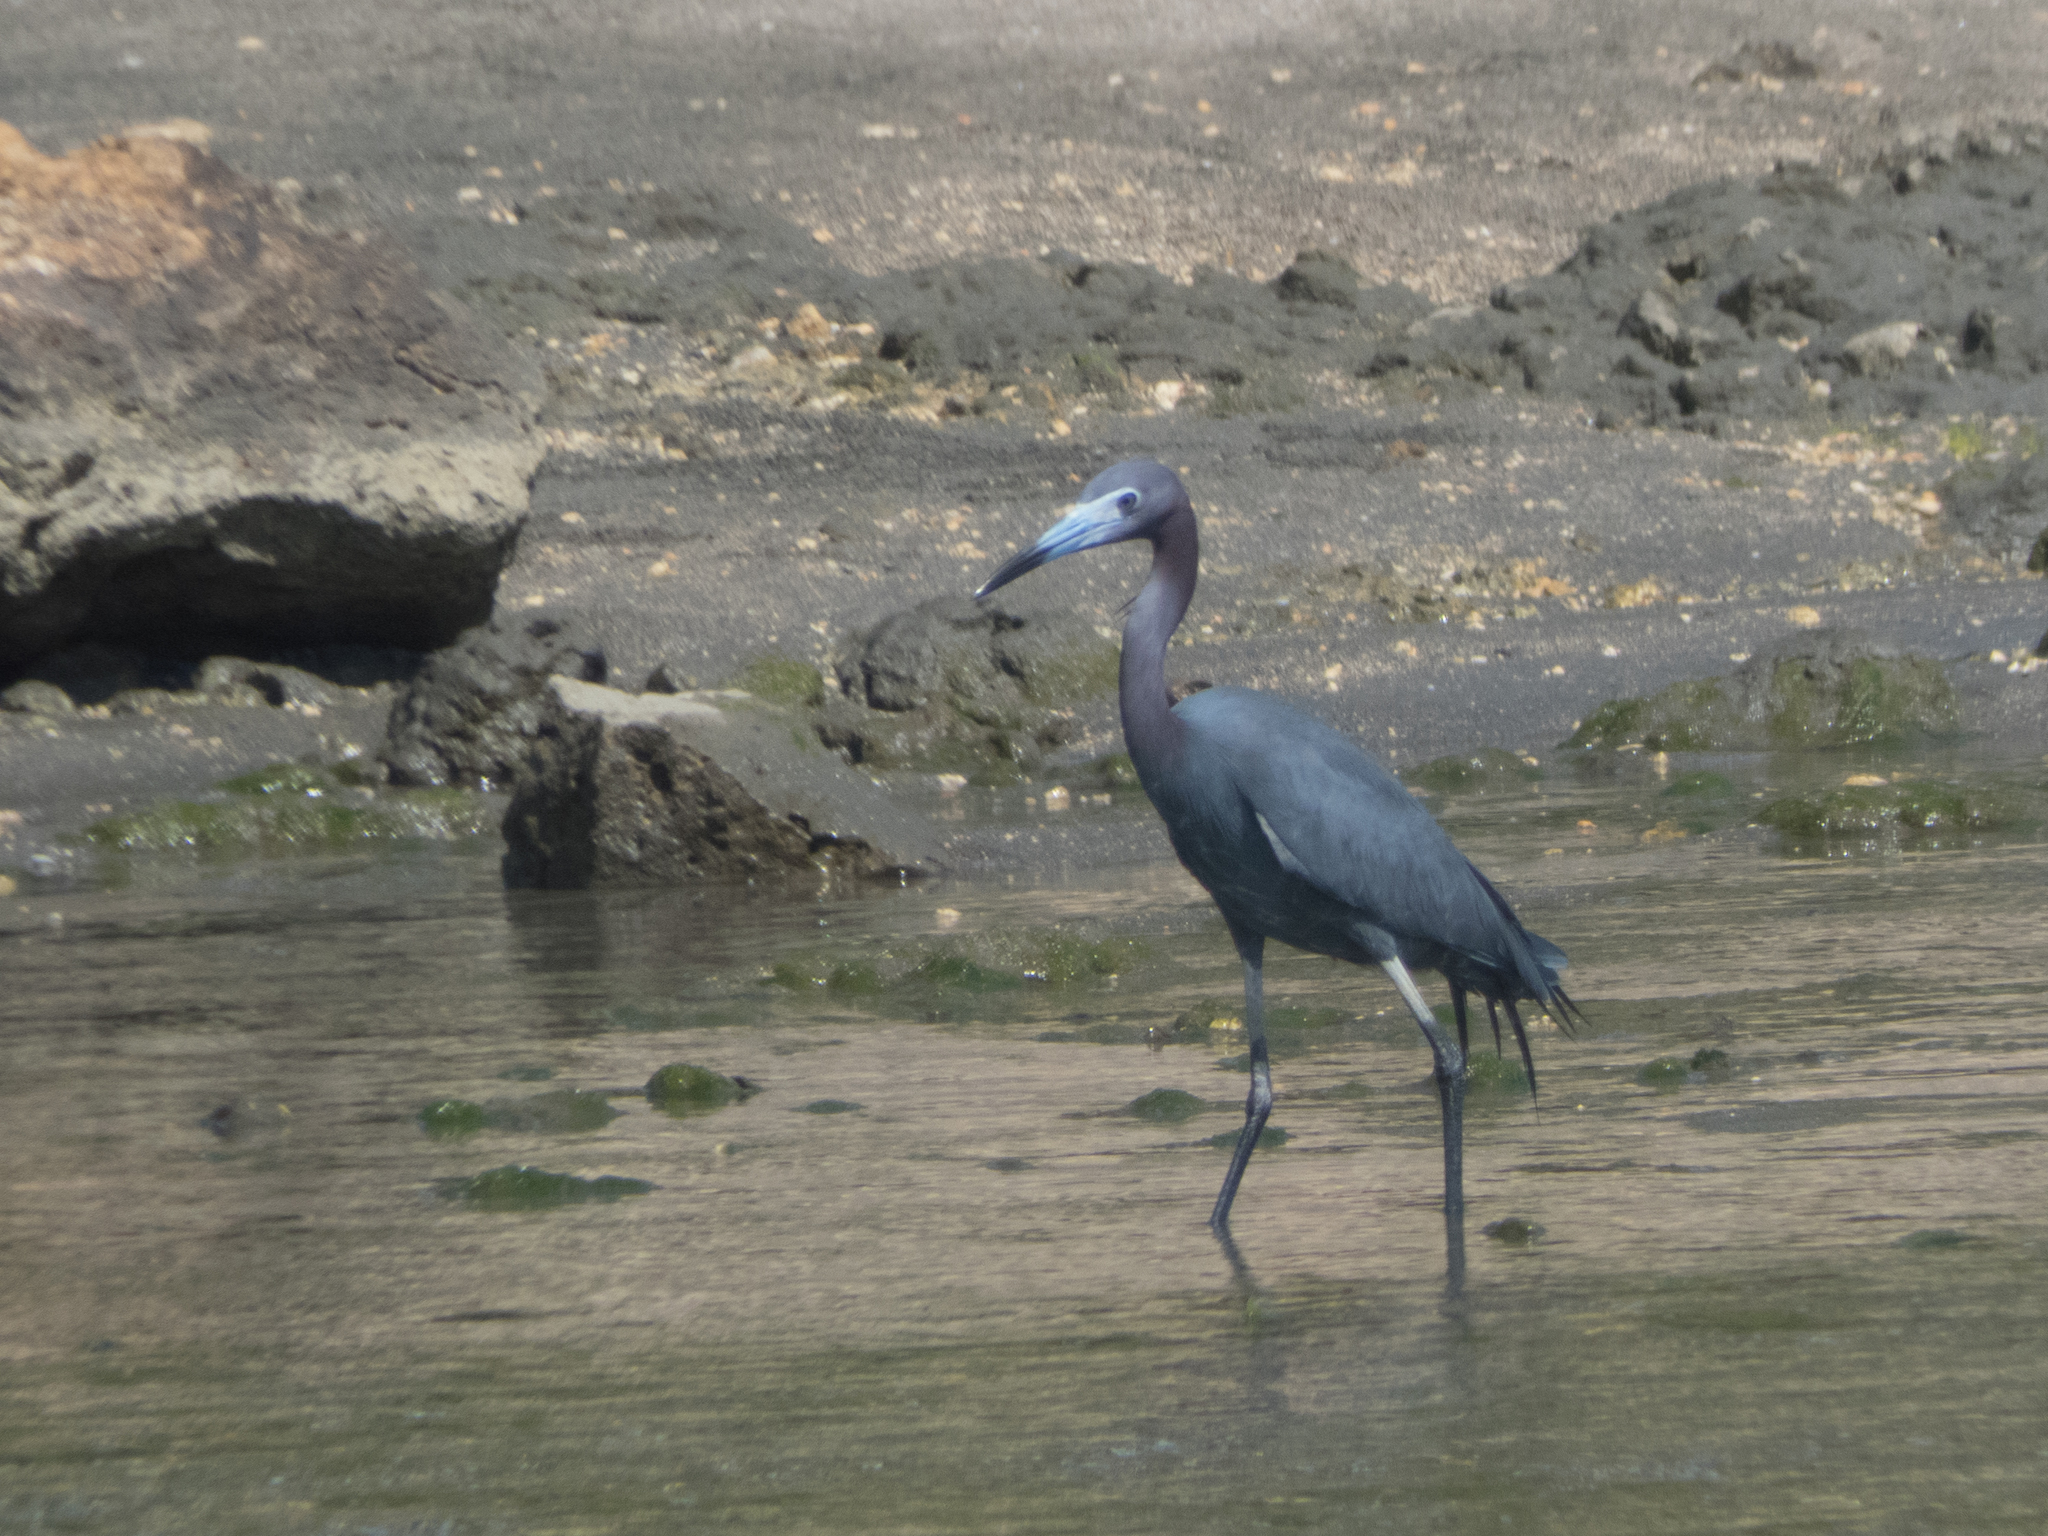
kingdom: Animalia
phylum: Chordata
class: Aves
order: Pelecaniformes
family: Ardeidae
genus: Egretta
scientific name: Egretta caerulea
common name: Little blue heron
